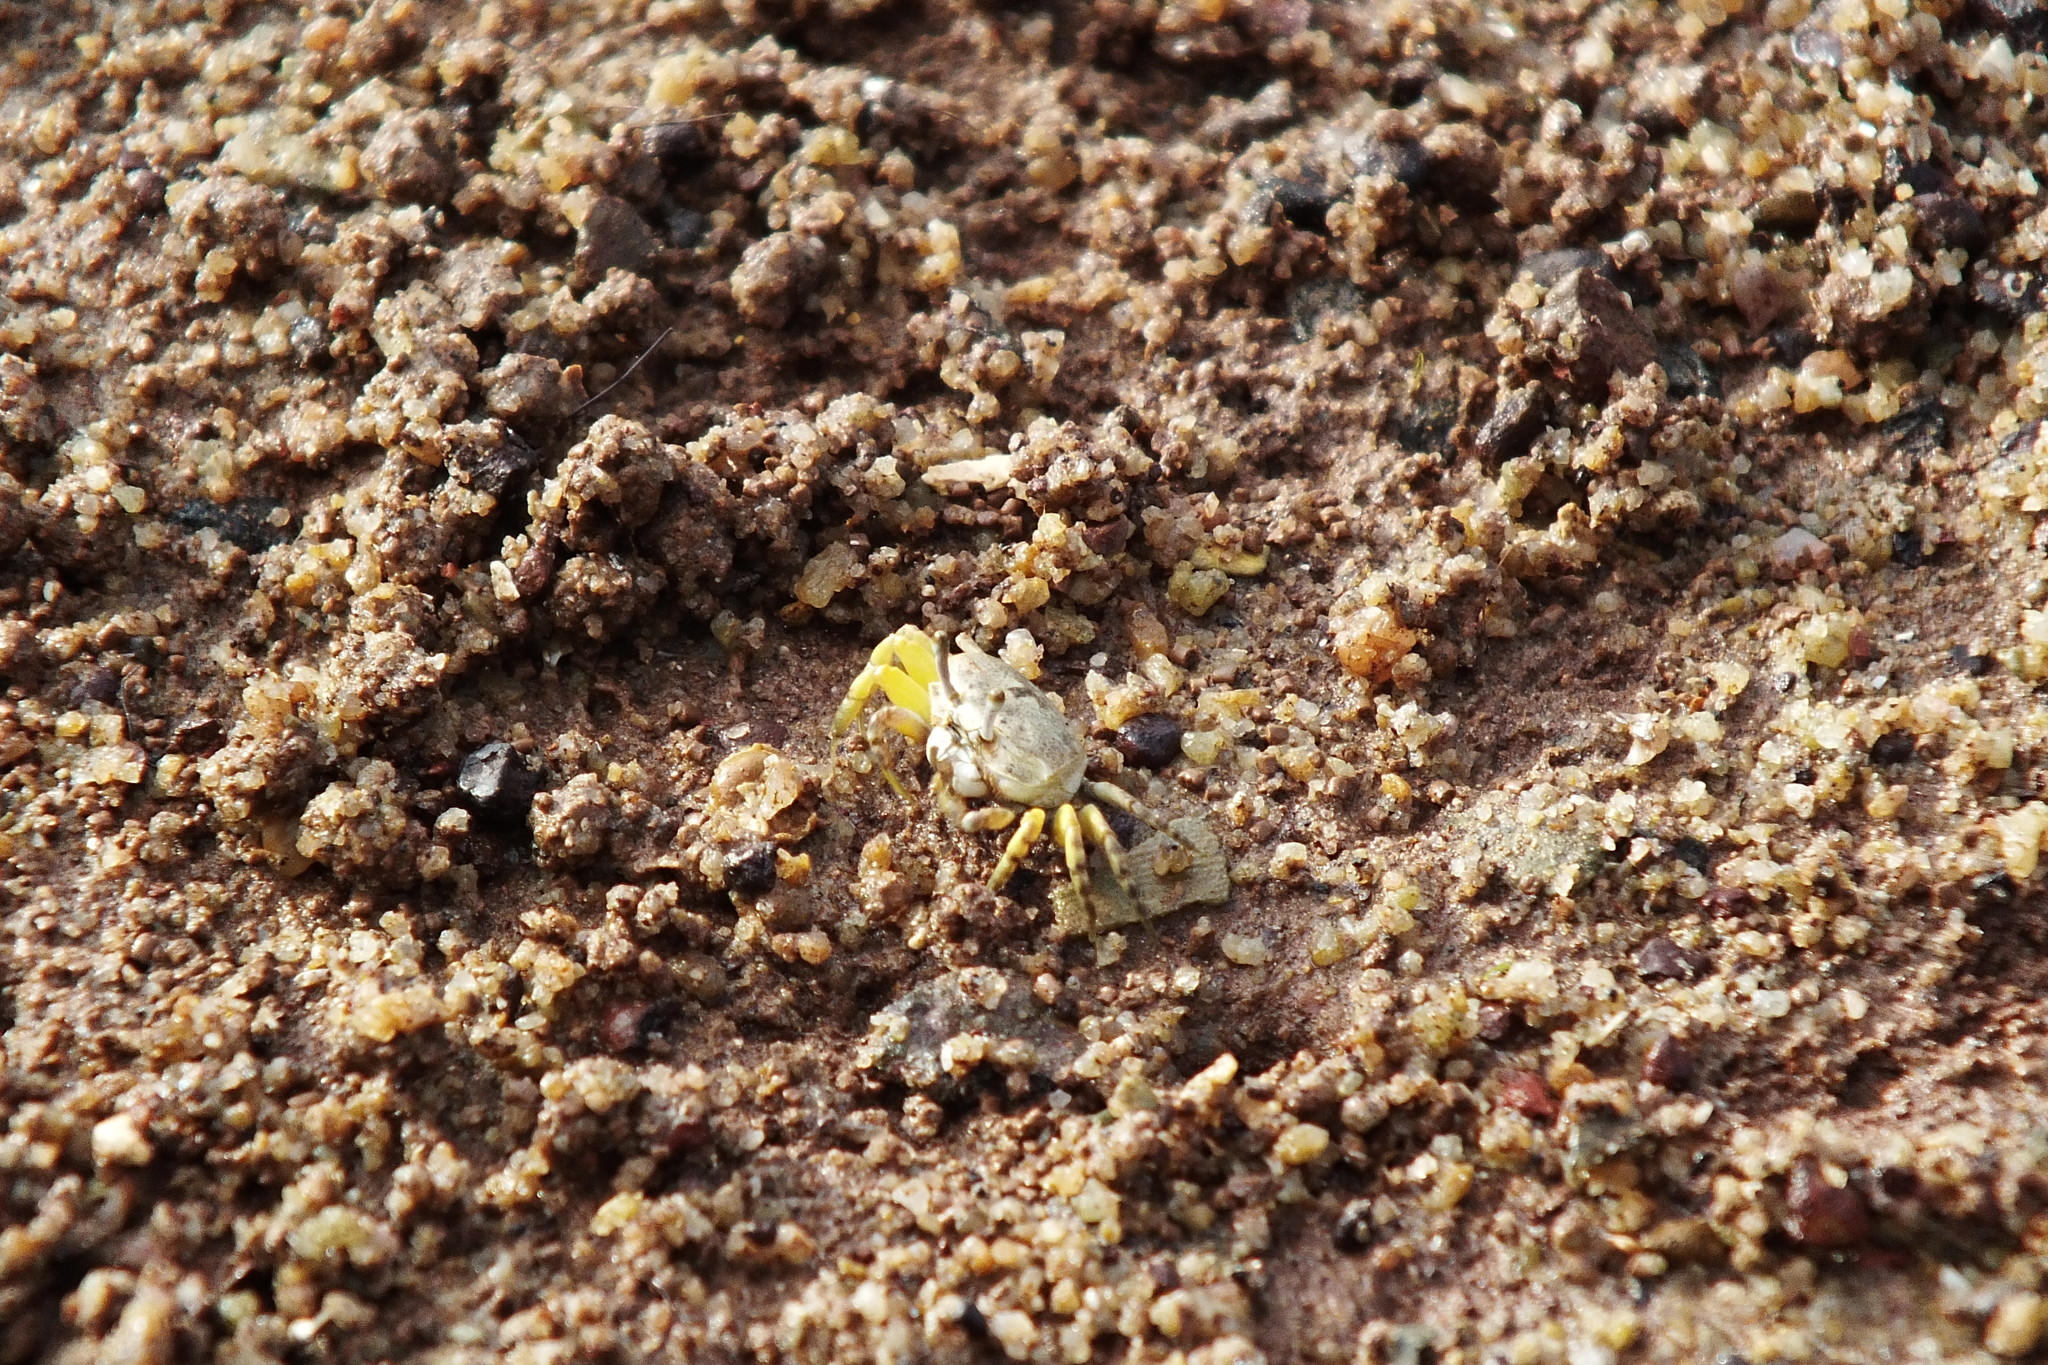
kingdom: Animalia
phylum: Arthropoda
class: Malacostraca
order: Decapoda
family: Ocypodidae
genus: Austruca
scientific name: Austruca mjobergi
